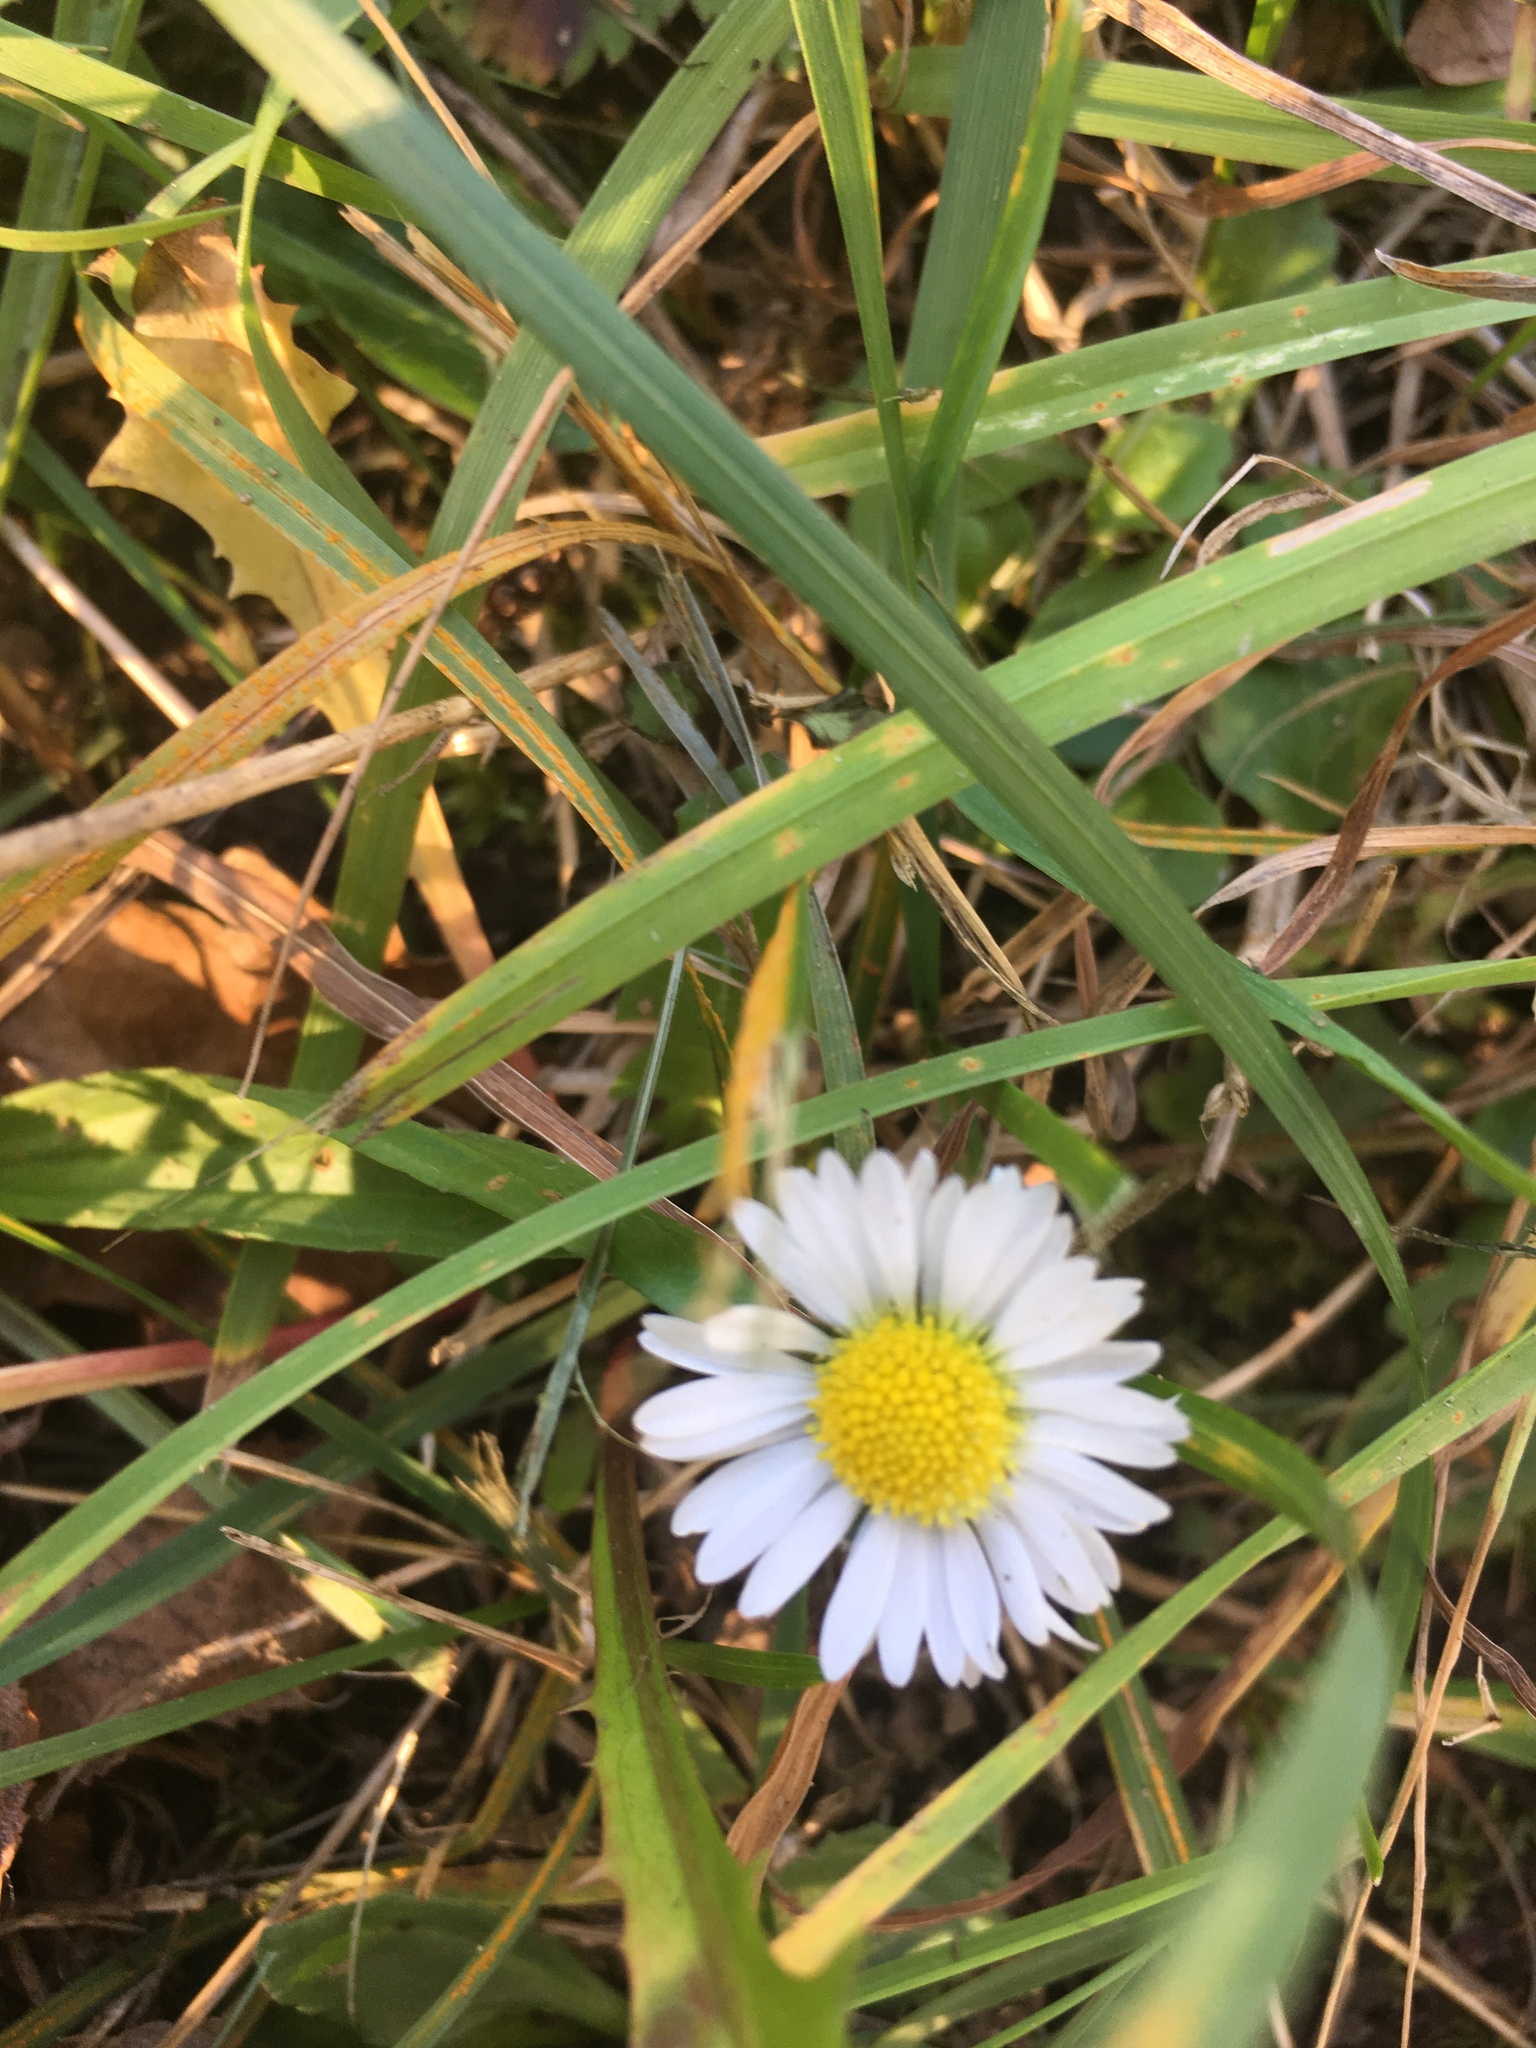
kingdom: Plantae
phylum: Tracheophyta
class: Magnoliopsida
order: Asterales
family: Asteraceae
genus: Bellis
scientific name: Bellis perennis
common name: Lawndaisy
